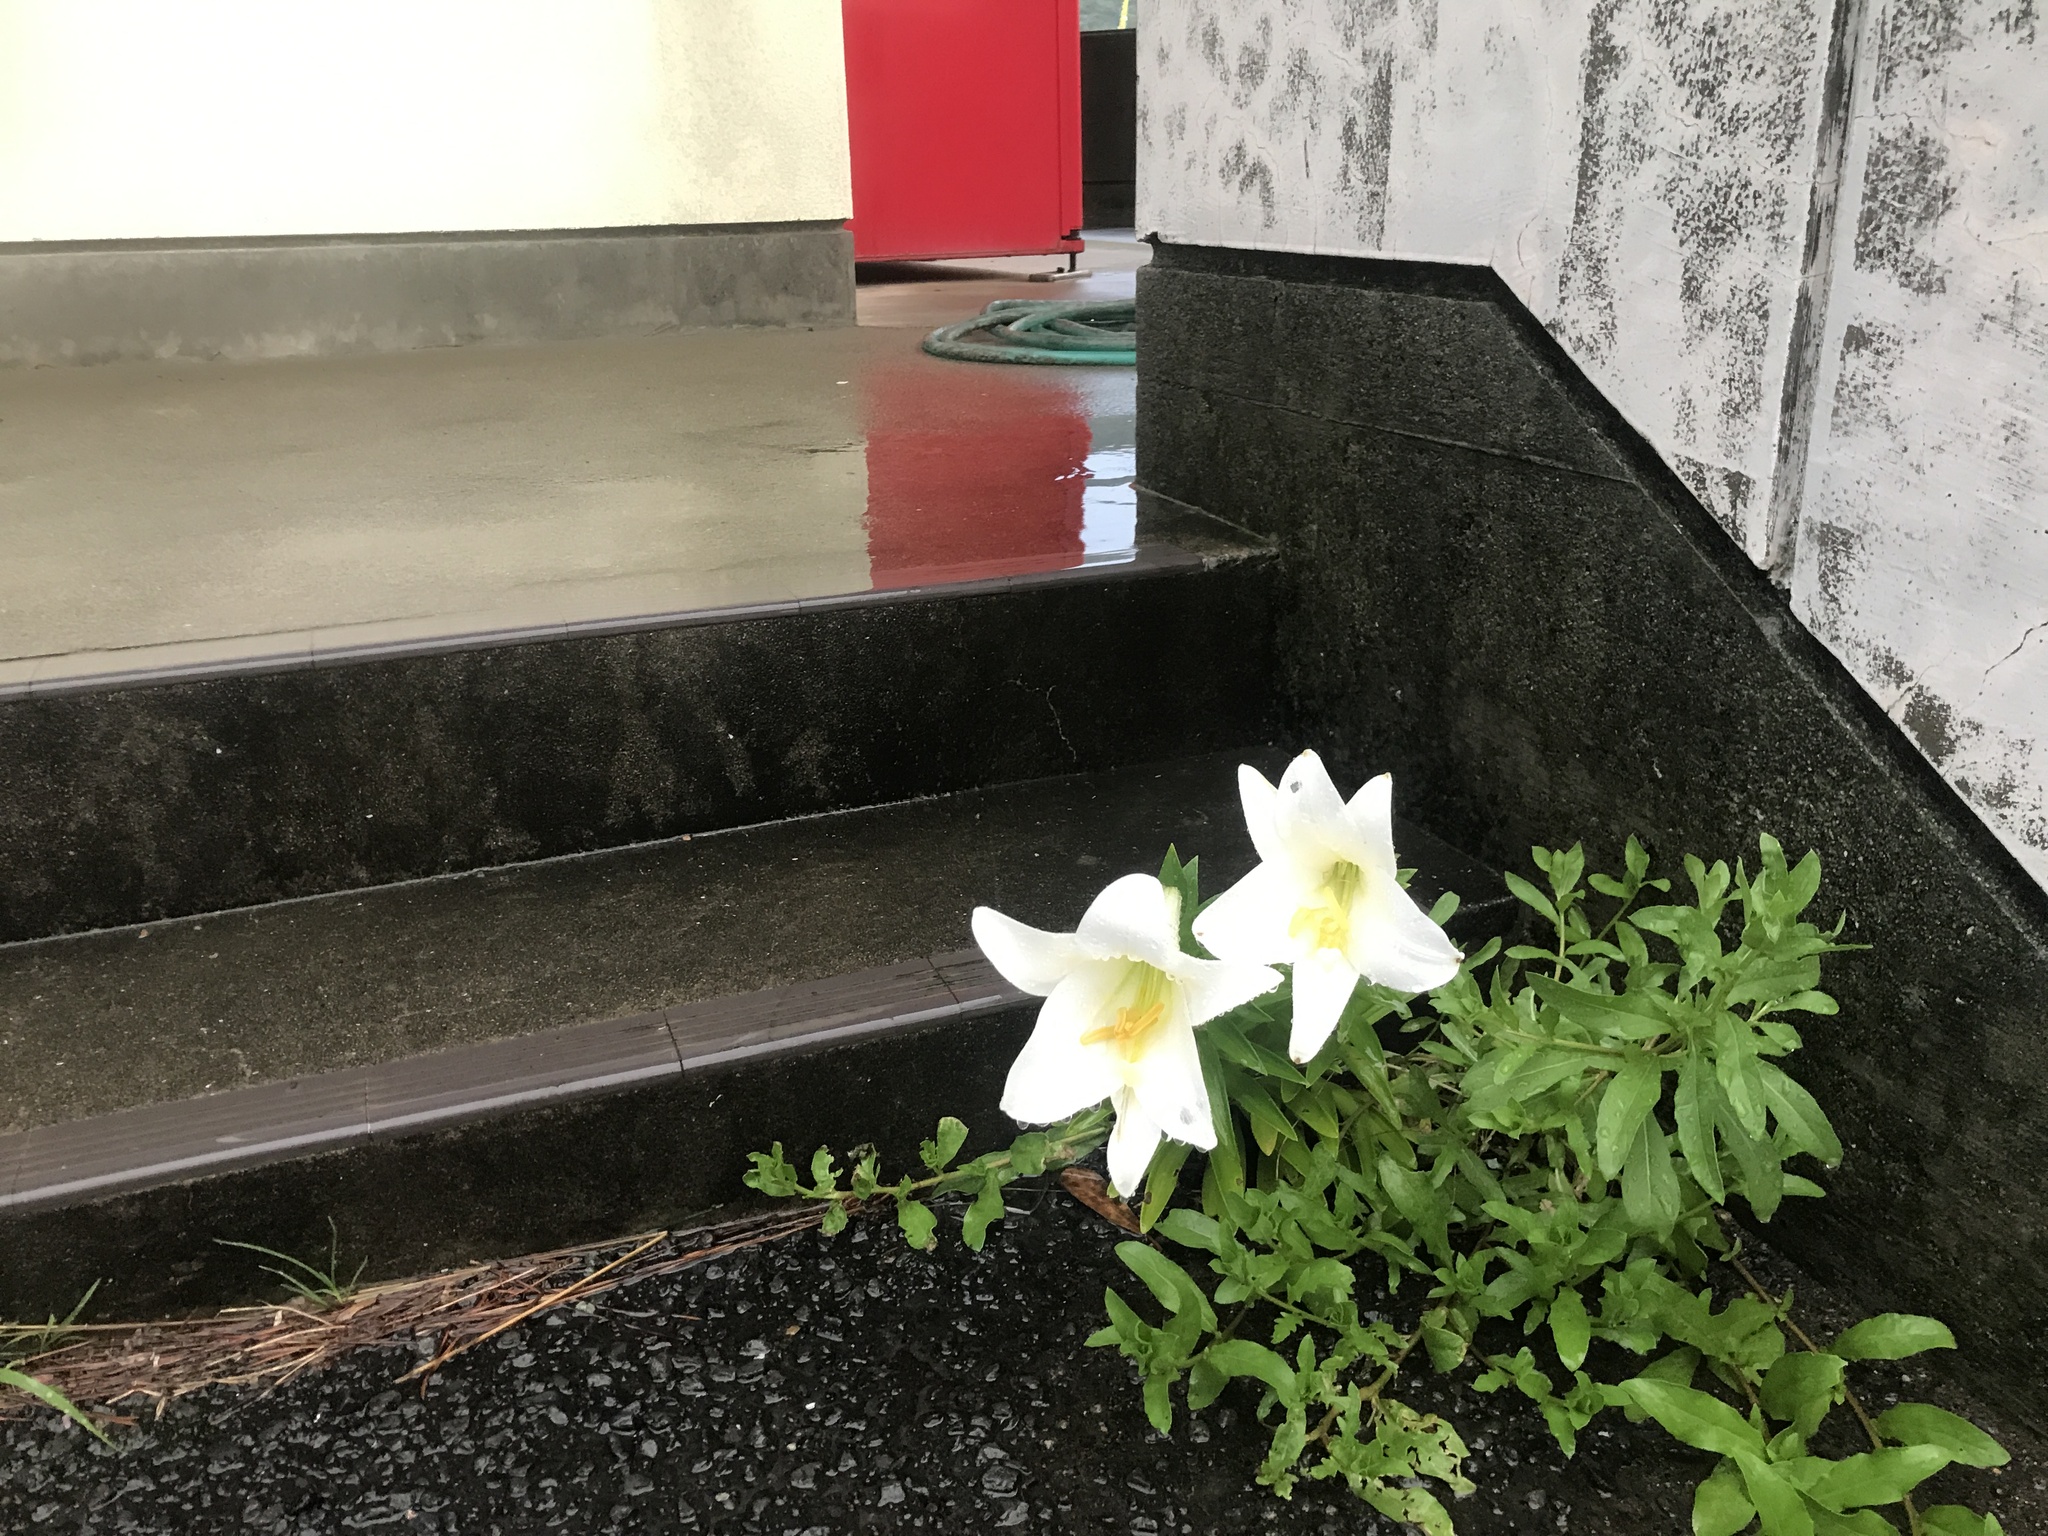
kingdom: Plantae
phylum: Tracheophyta
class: Liliopsida
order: Liliales
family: Liliaceae
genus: Lilium
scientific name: Lilium longiflorum
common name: Easter lily
